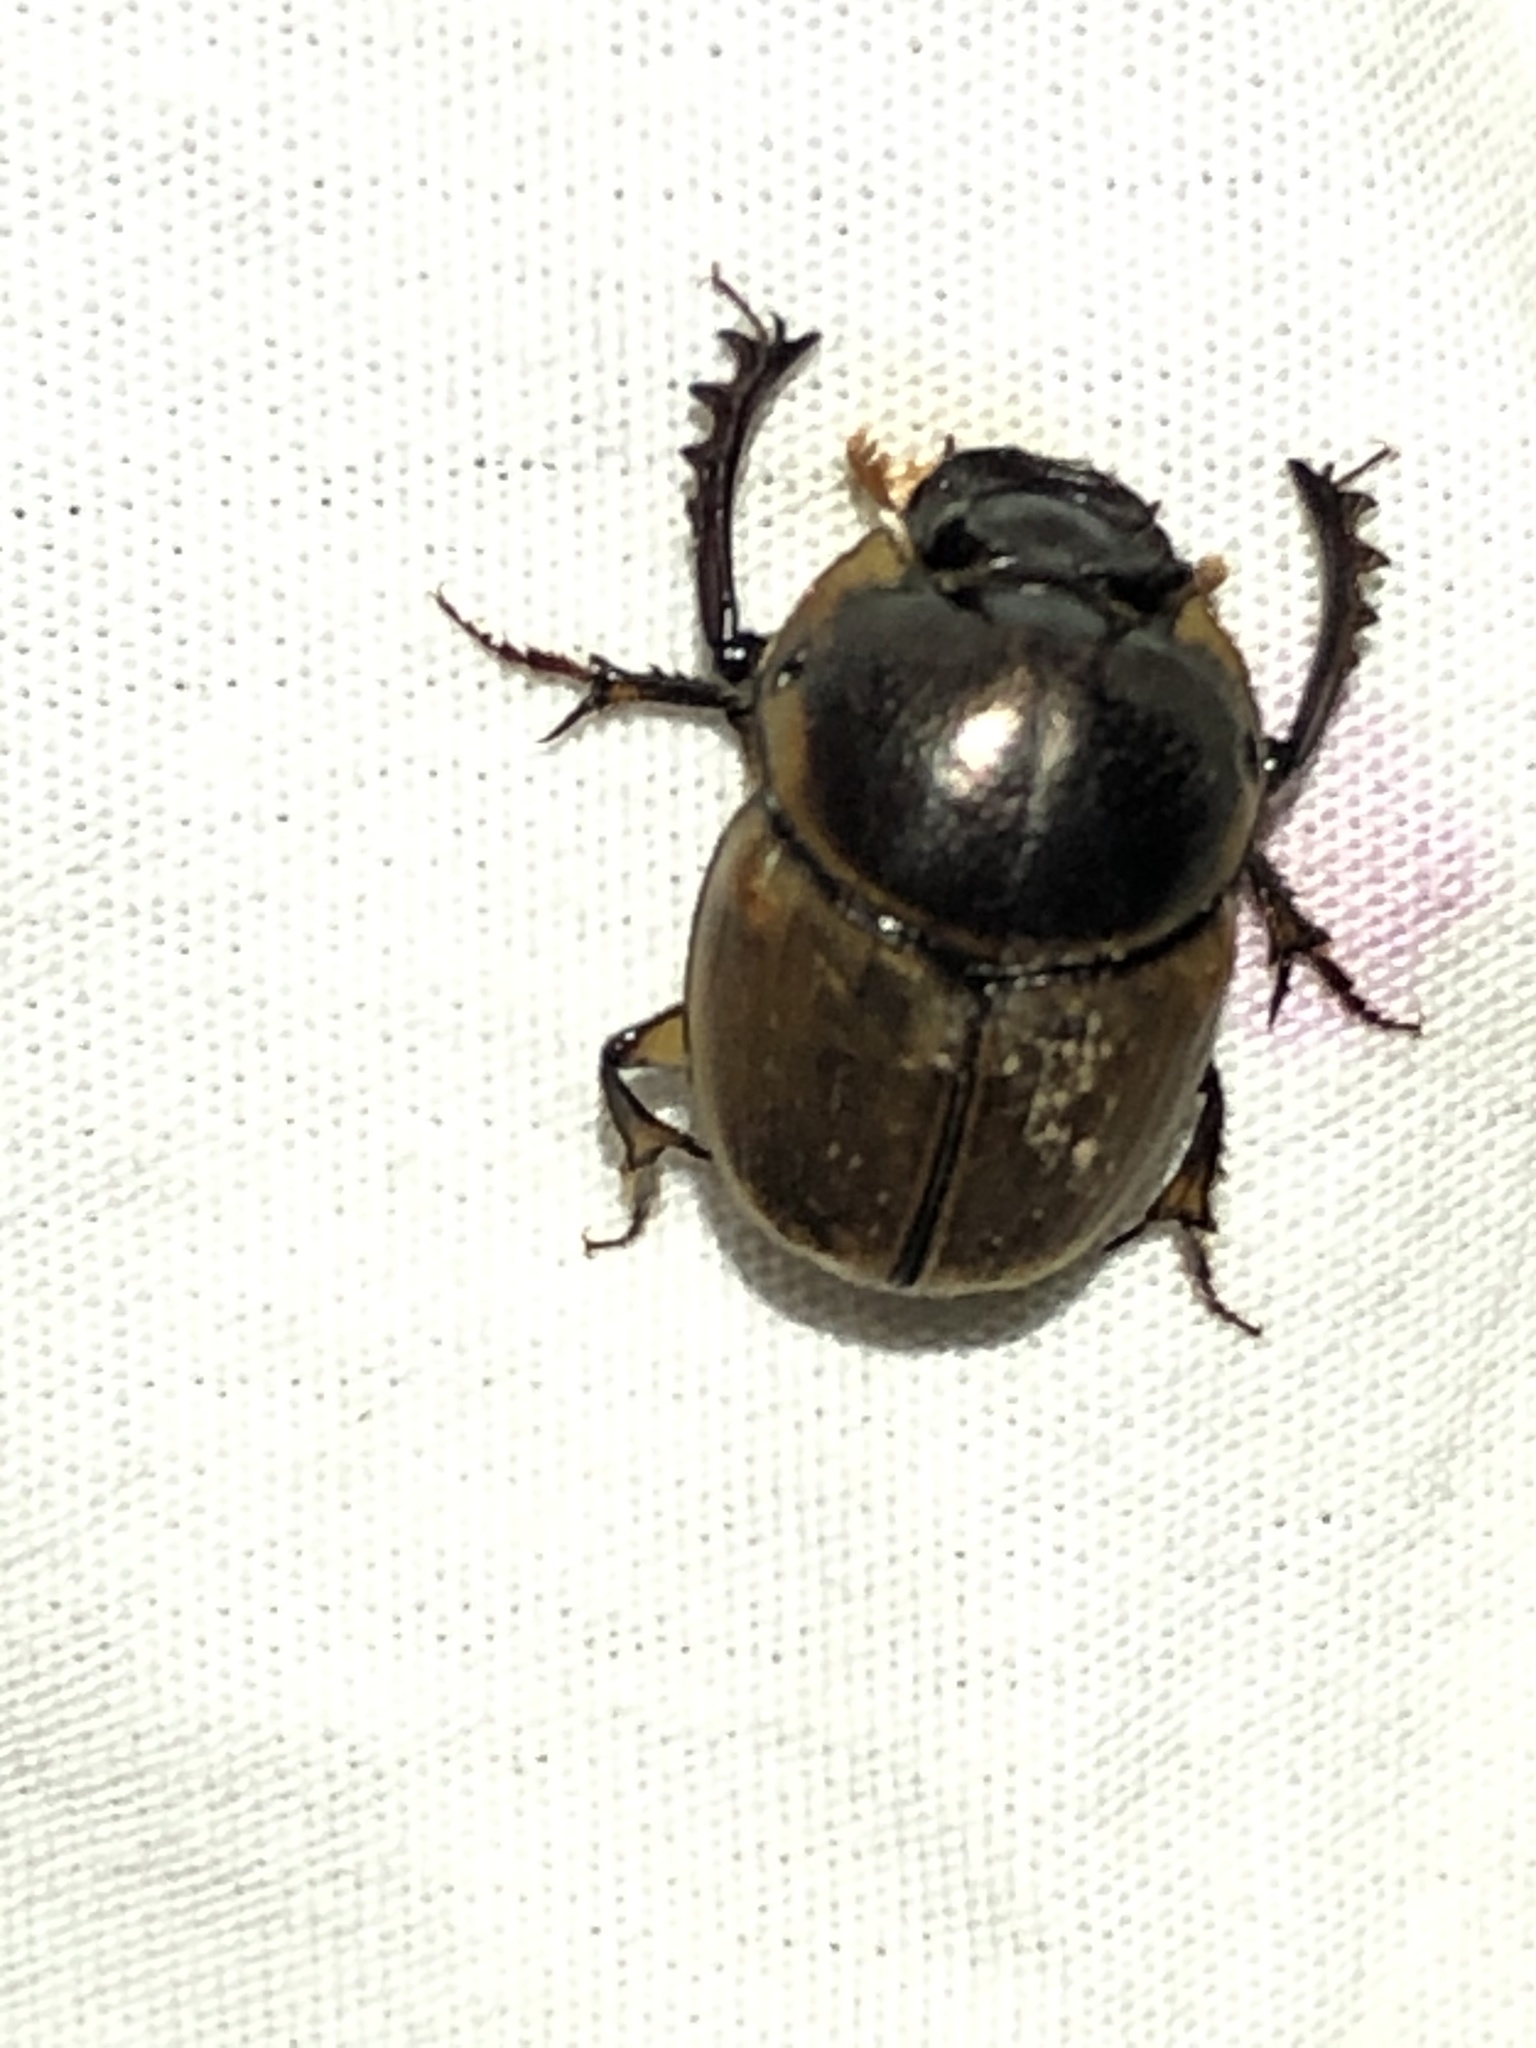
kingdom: Animalia
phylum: Arthropoda
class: Insecta
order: Coleoptera
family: Scarabaeidae
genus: Digitonthophagus
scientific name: Digitonthophagus gazella
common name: Brown dung beetle
